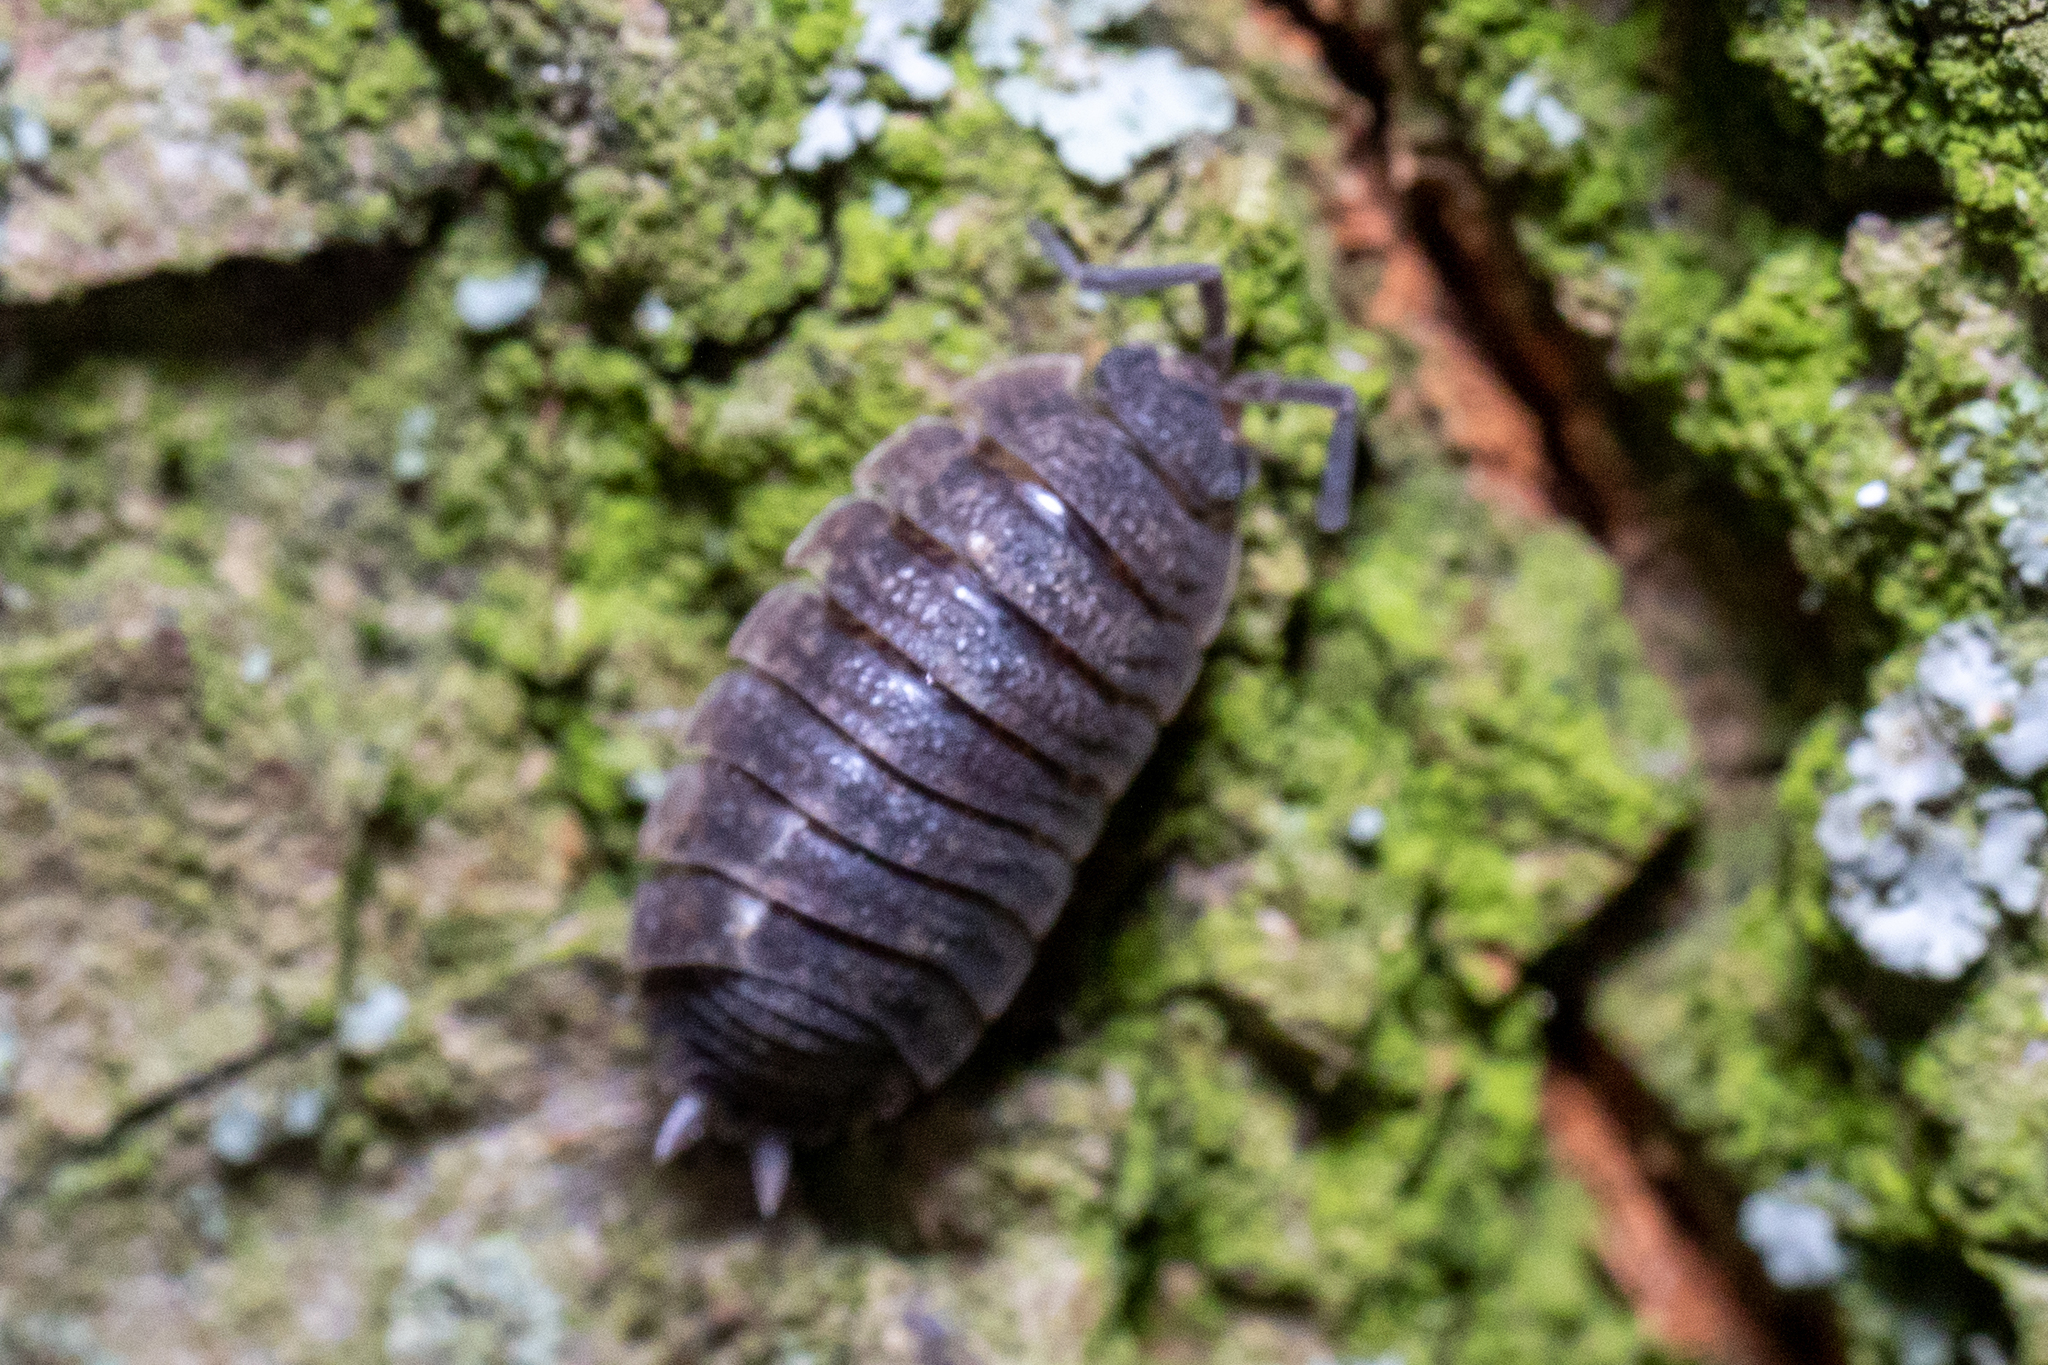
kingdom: Animalia
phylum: Arthropoda
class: Malacostraca
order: Isopoda
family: Porcellionidae
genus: Porcellio
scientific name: Porcellio scaber
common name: Common rough woodlouse
